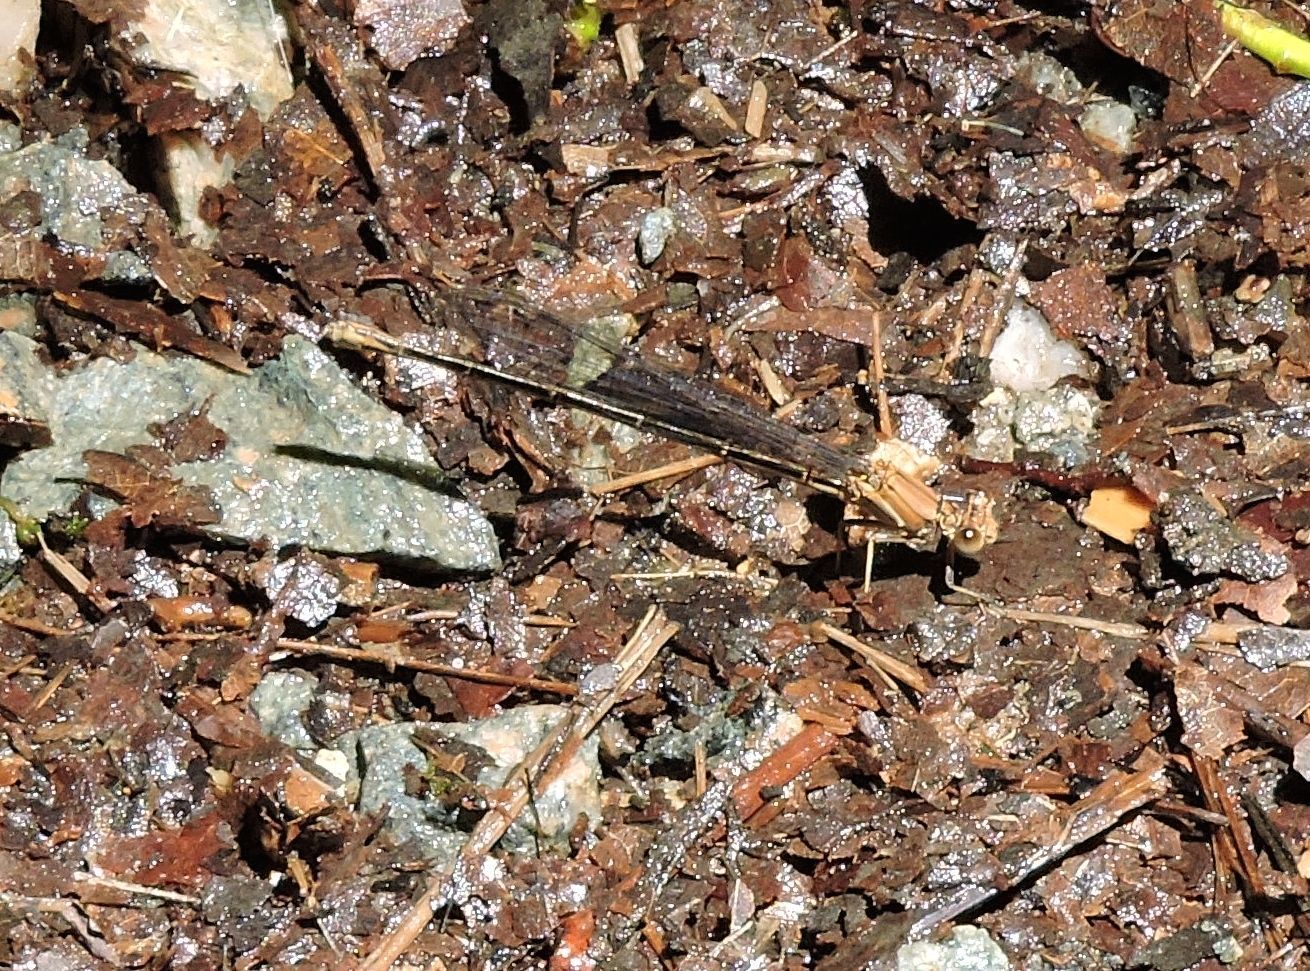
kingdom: Animalia
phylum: Arthropoda
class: Insecta
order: Odonata
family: Coenagrionidae
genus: Argia
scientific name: Argia apicalis
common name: Blue-fronted dancer
